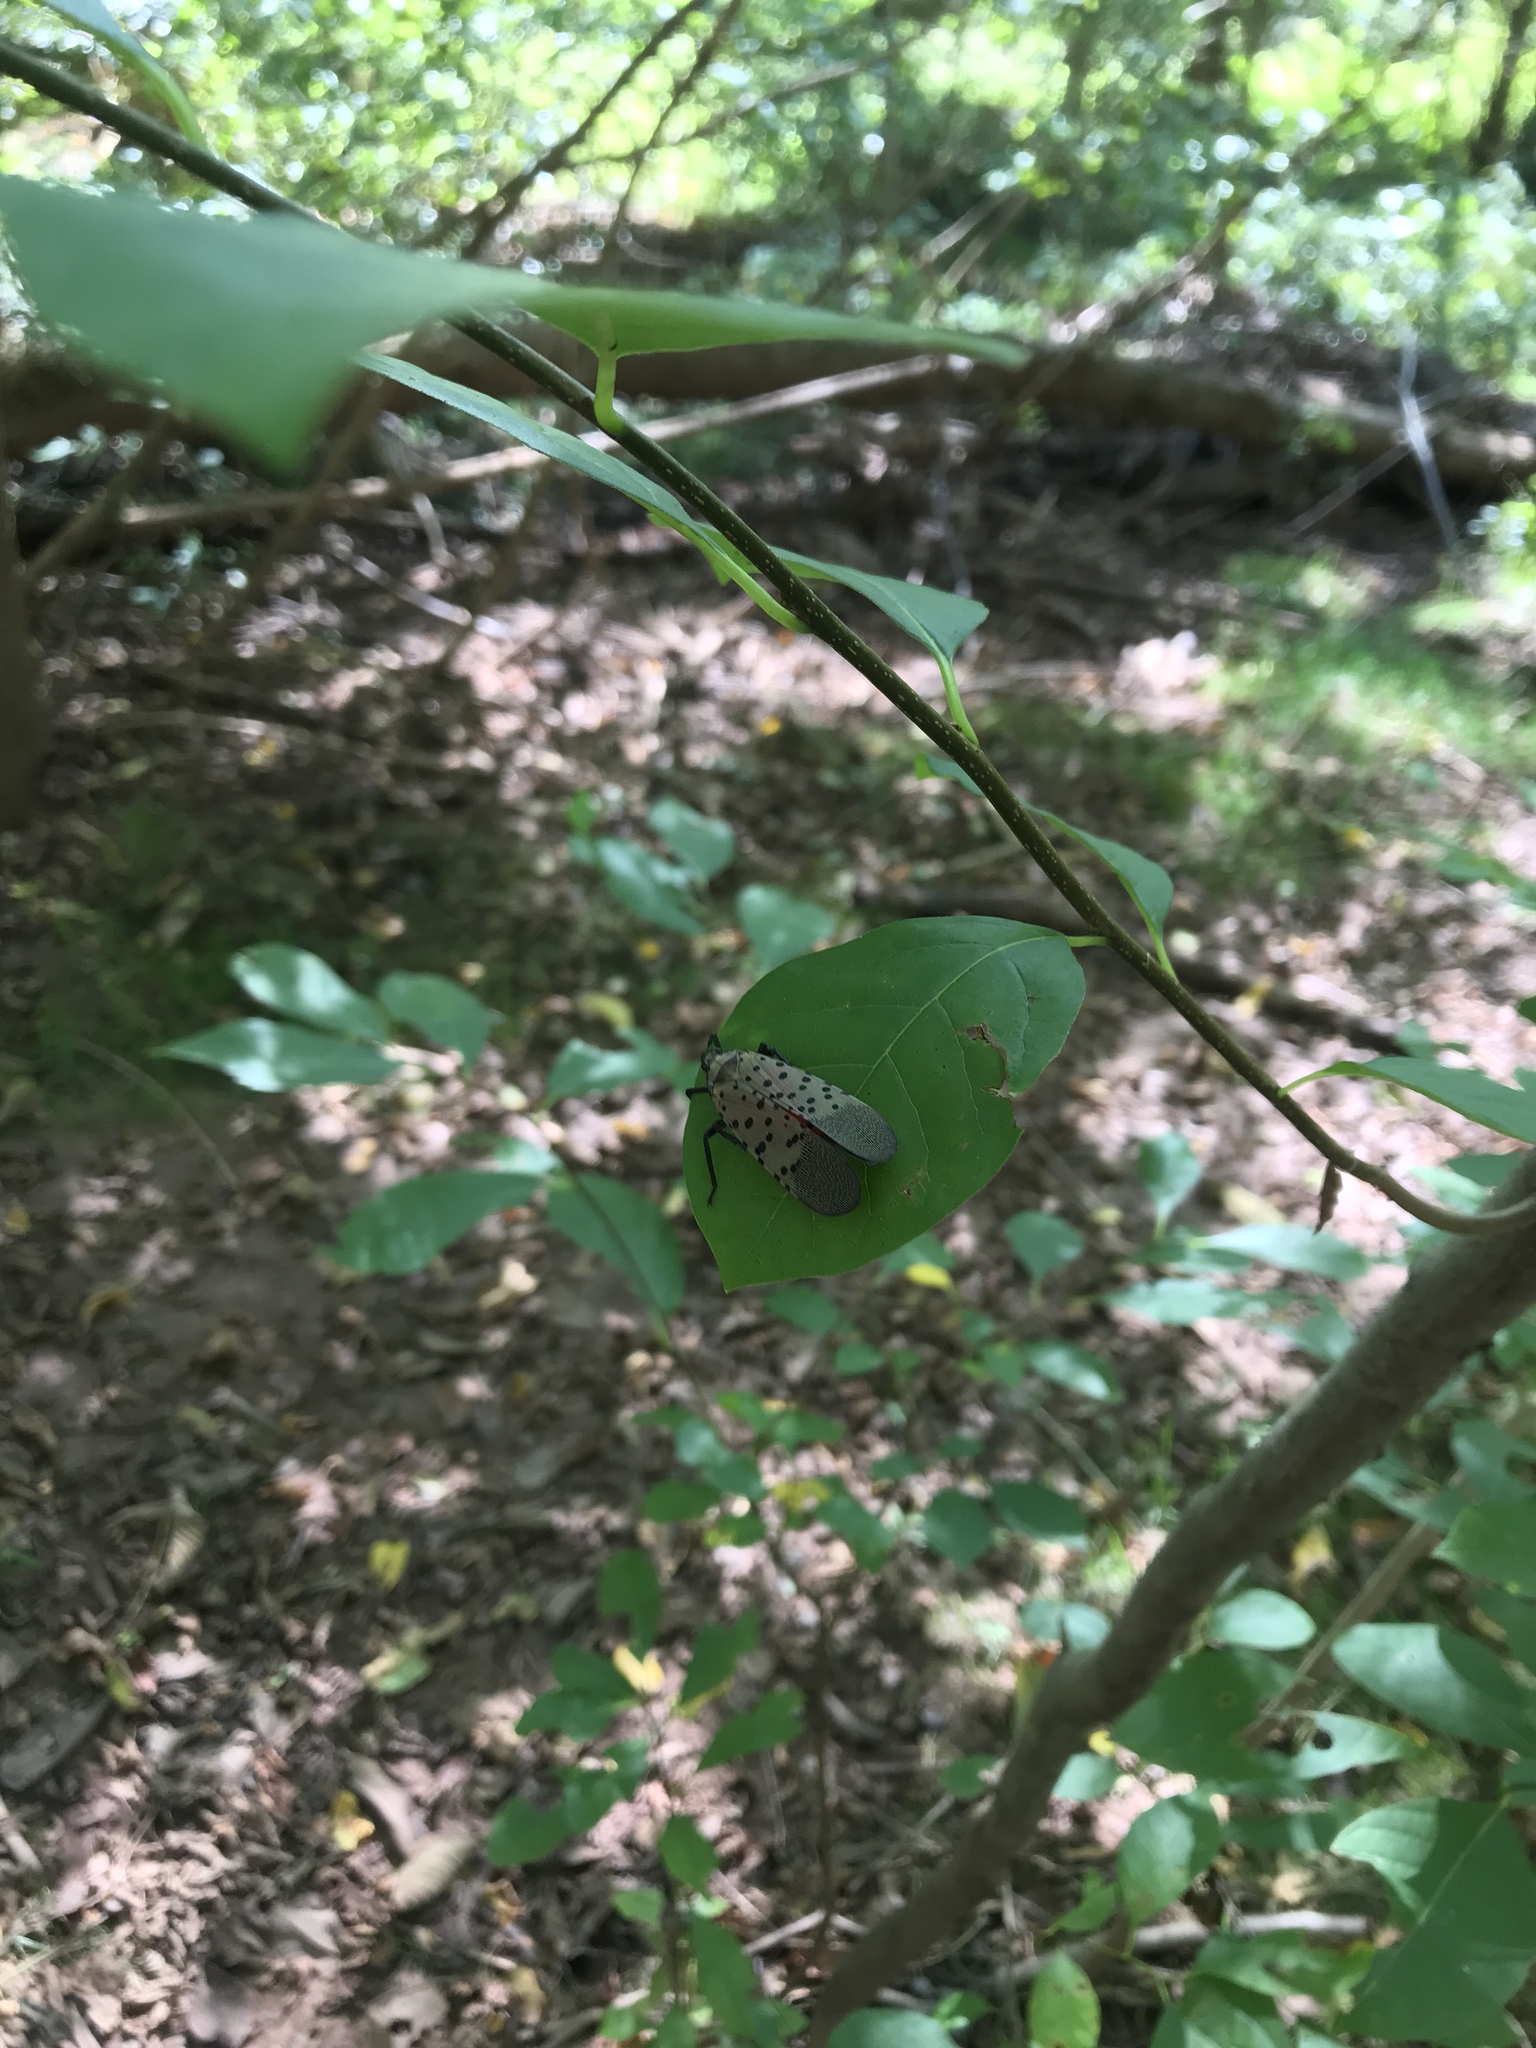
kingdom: Animalia
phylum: Arthropoda
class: Insecta
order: Hemiptera
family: Fulgoridae
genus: Lycorma
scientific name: Lycorma delicatula
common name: Spotted lanternfly
